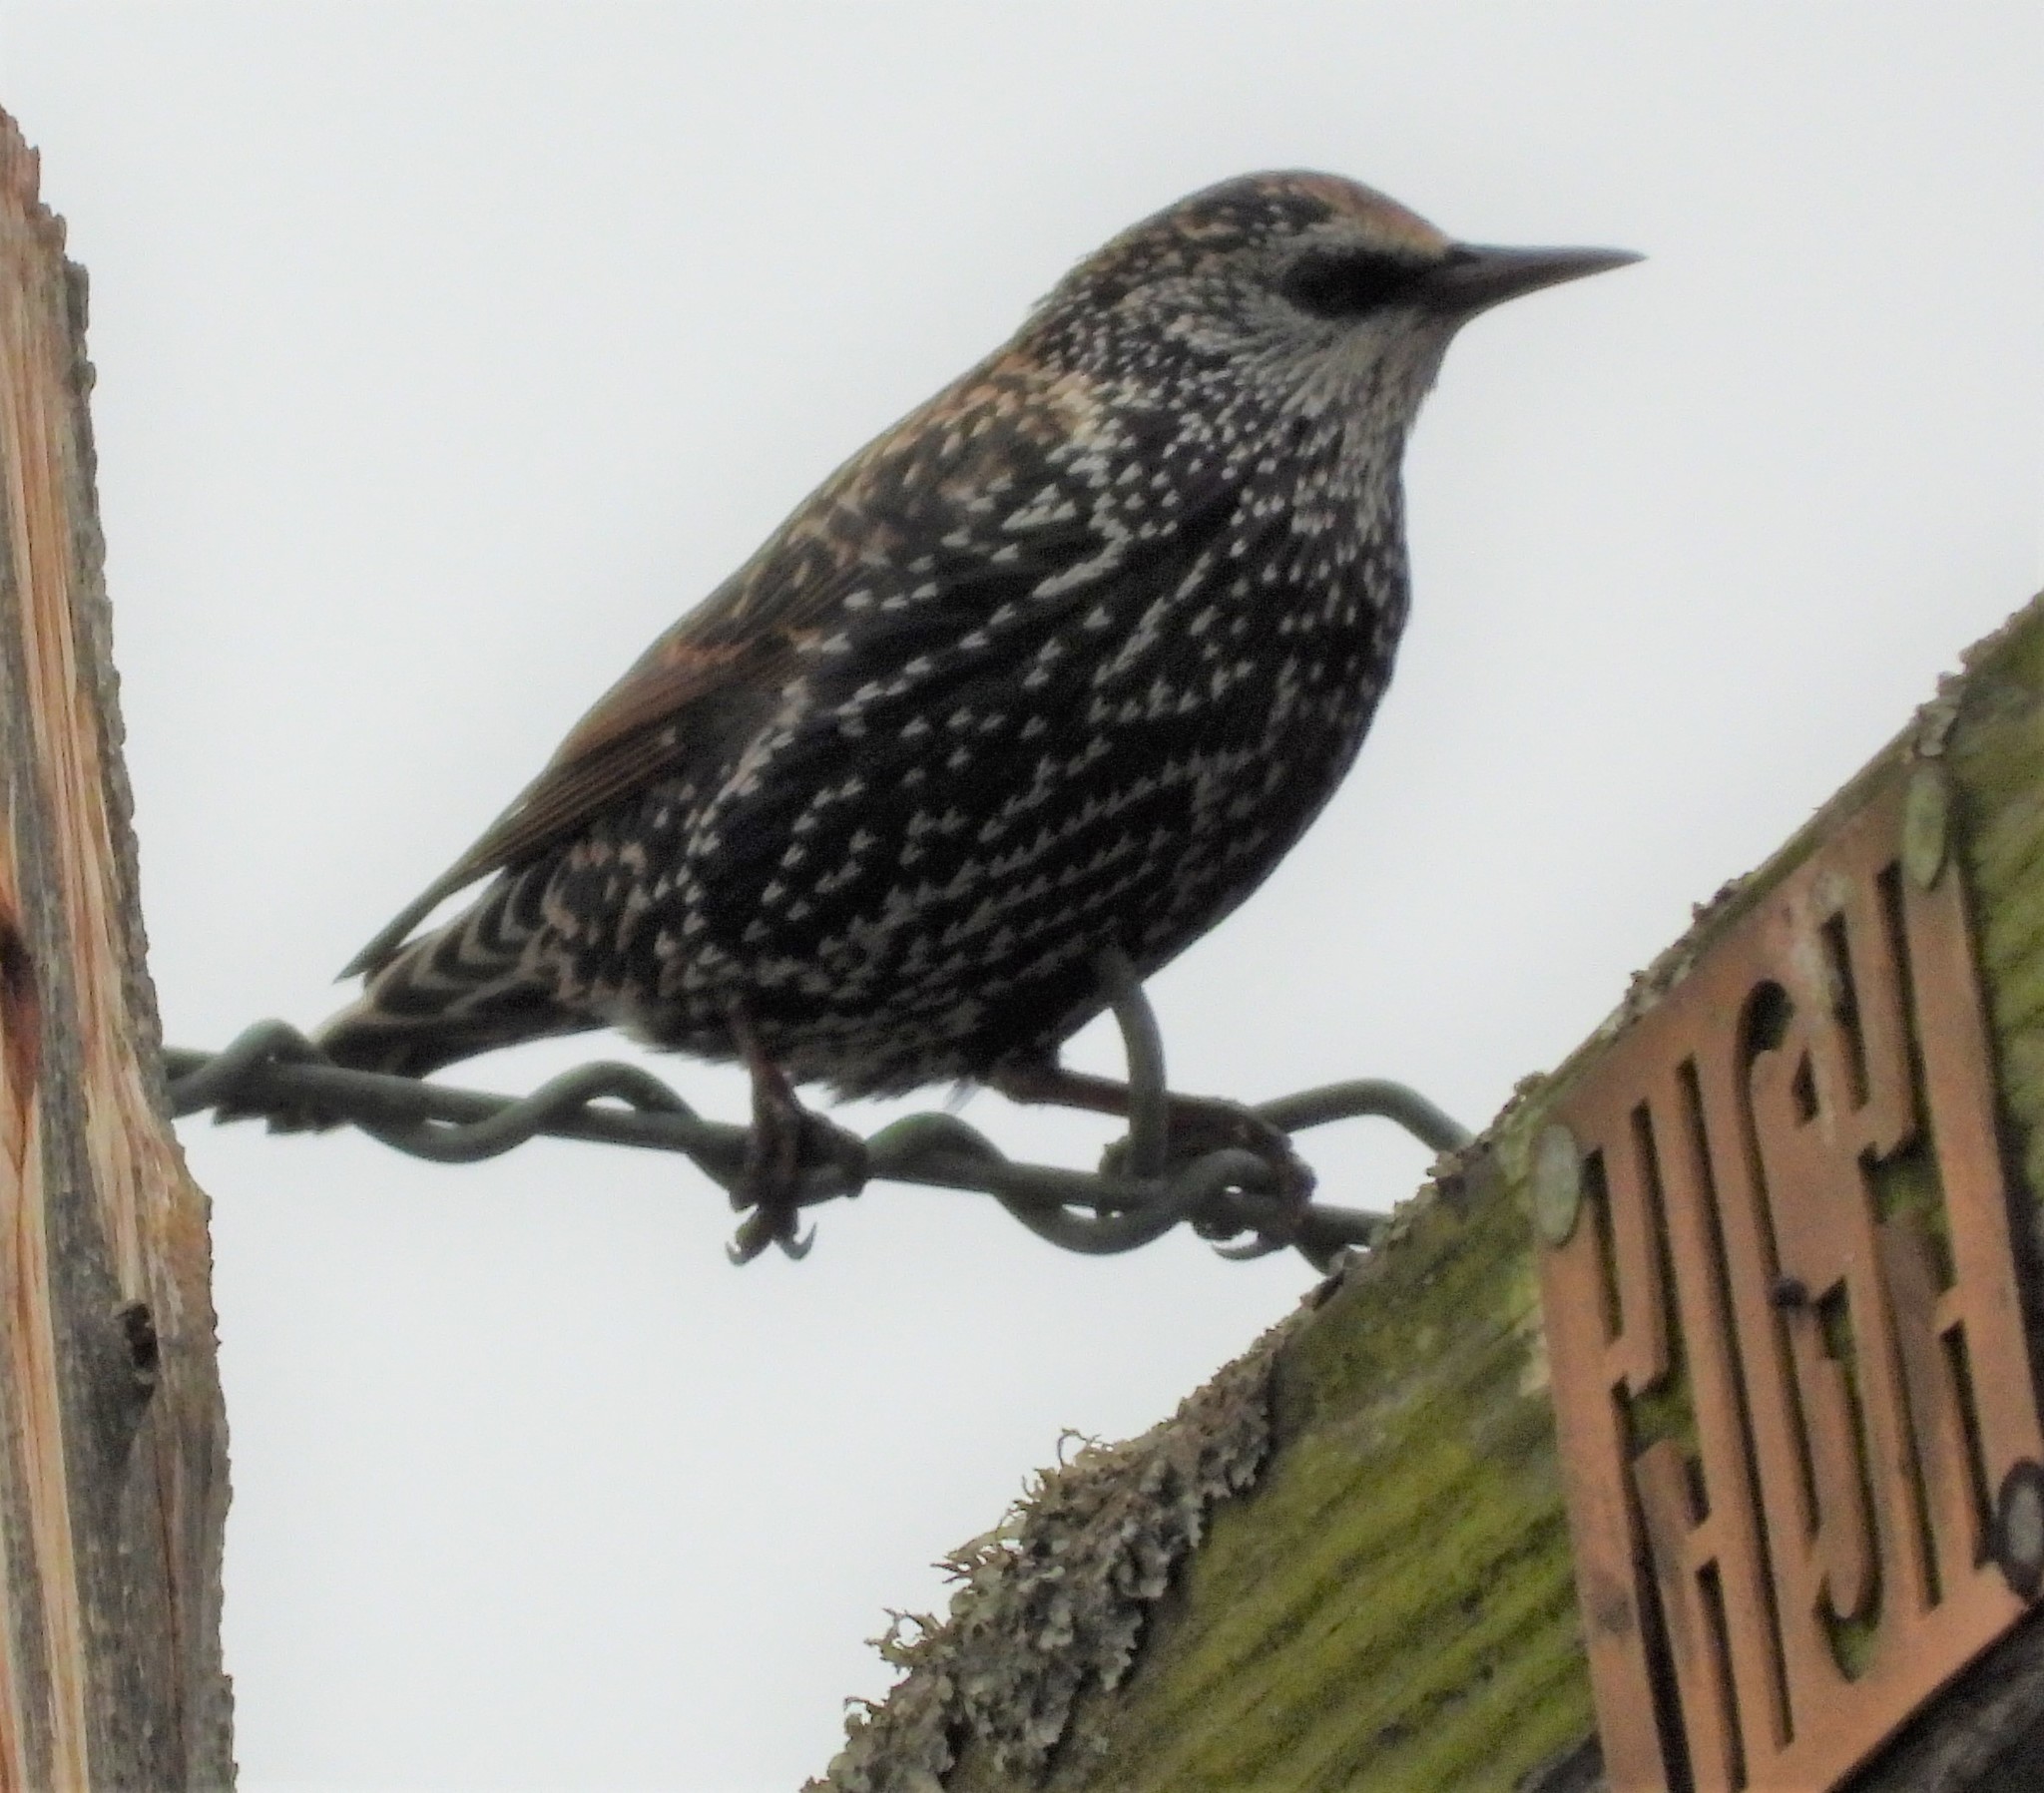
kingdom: Animalia
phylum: Chordata
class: Aves
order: Passeriformes
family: Sturnidae
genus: Sturnus
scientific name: Sturnus vulgaris
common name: Common starling
